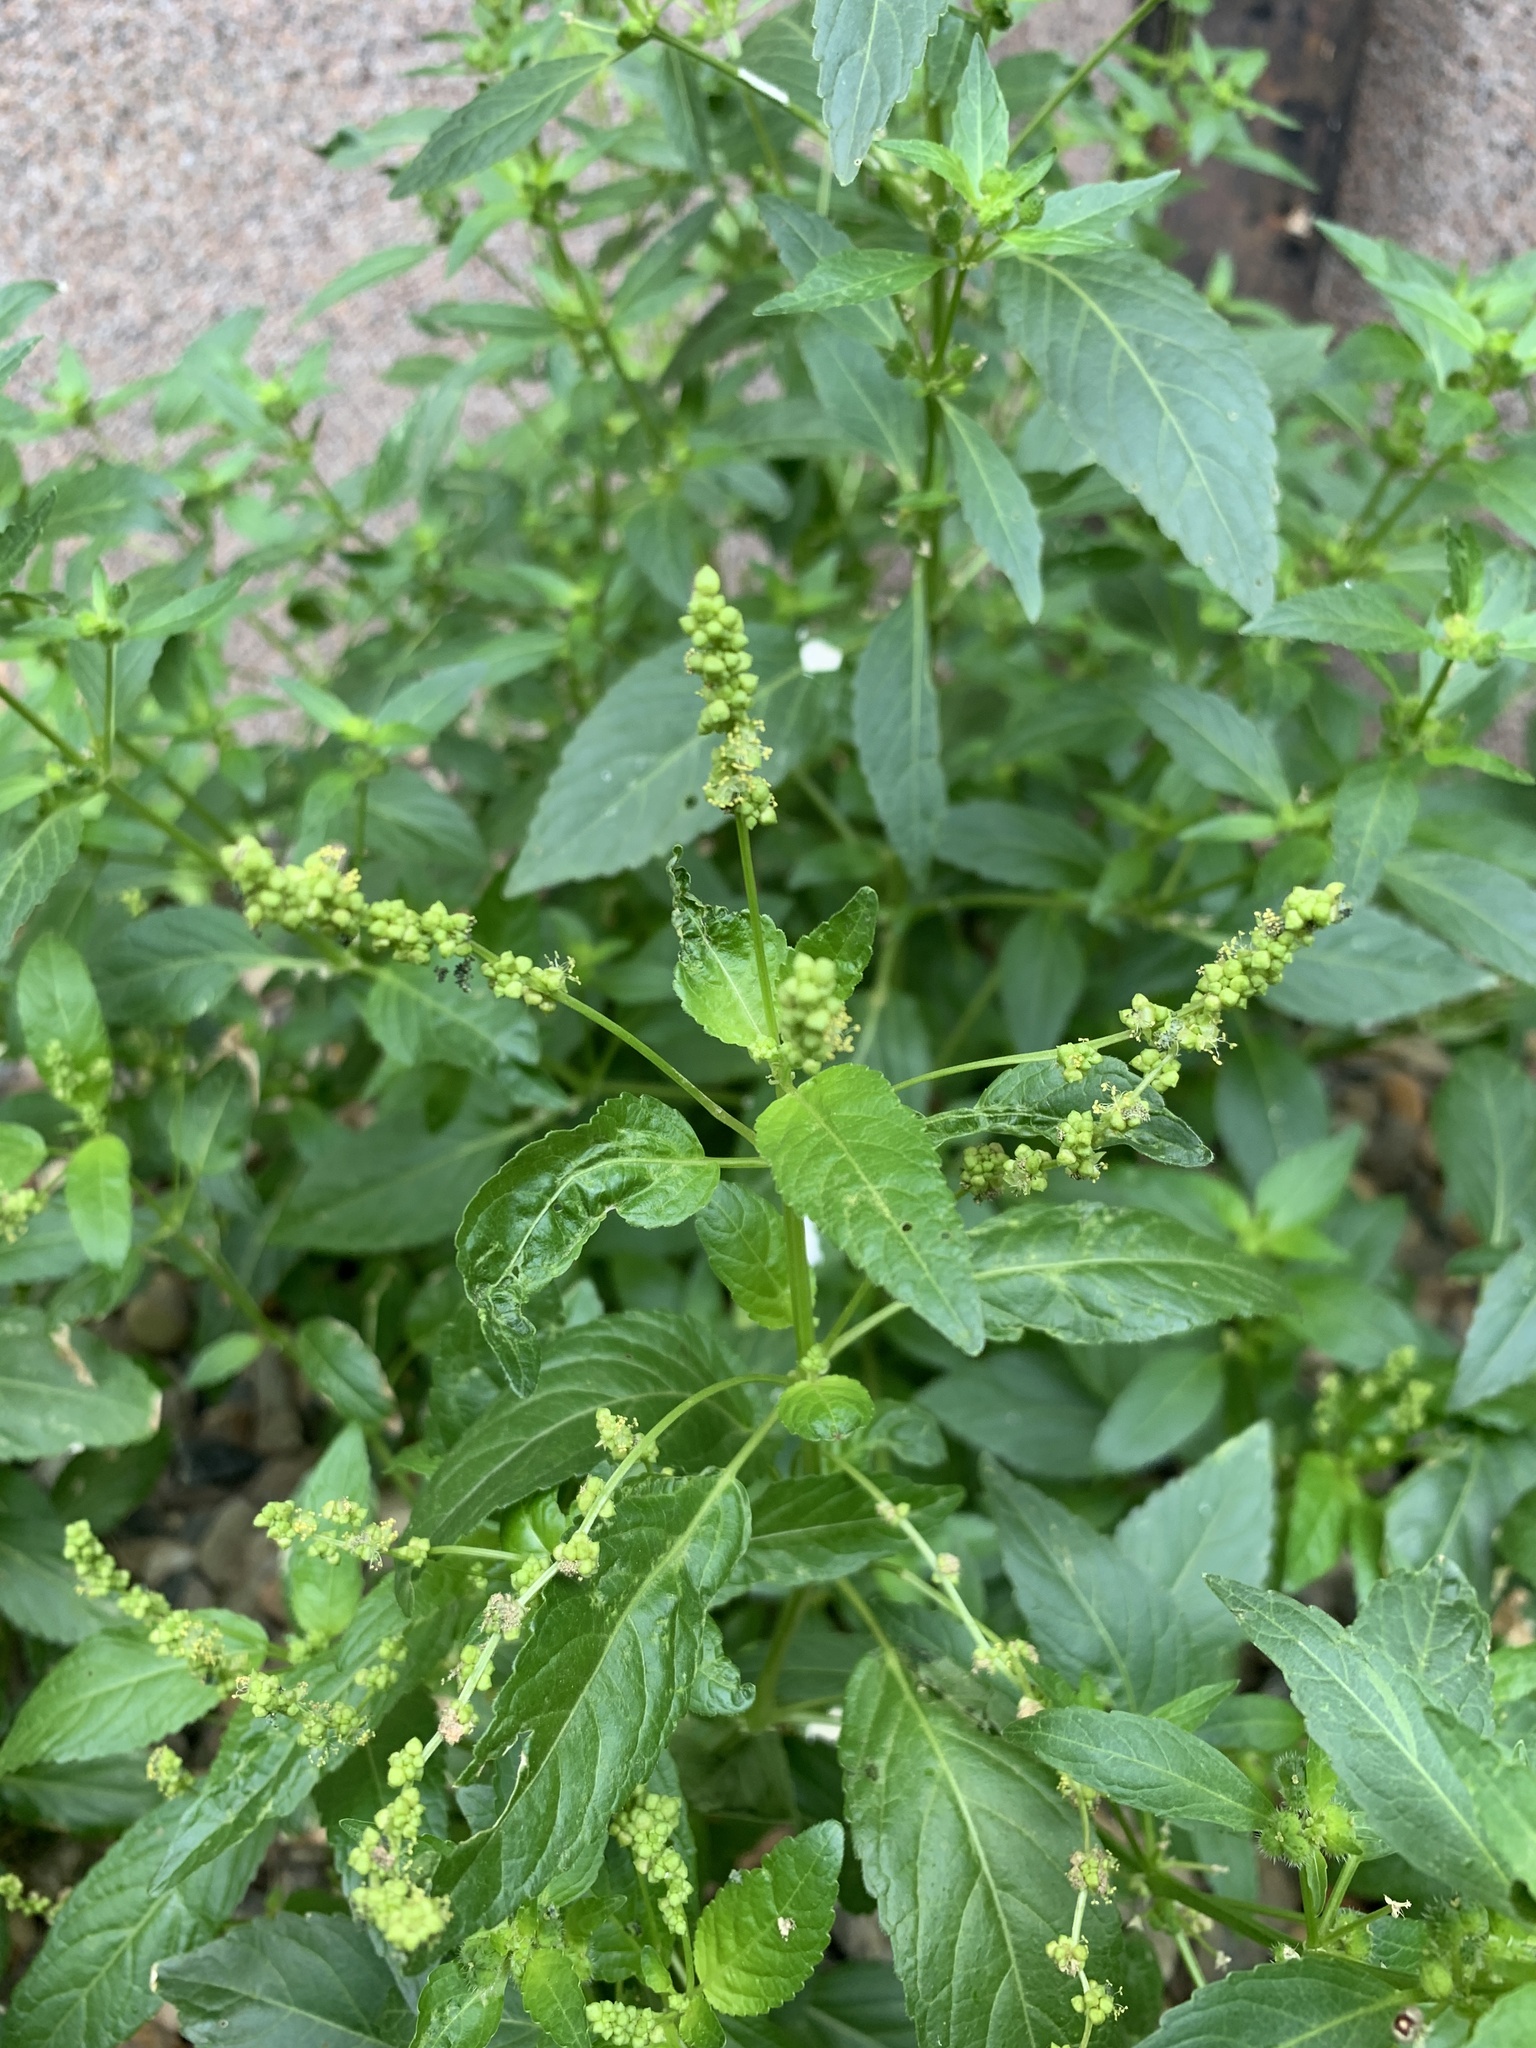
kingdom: Plantae
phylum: Tracheophyta
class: Magnoliopsida
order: Malpighiales
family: Euphorbiaceae
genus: Mercurialis
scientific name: Mercurialis annua
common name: Annual mercury
